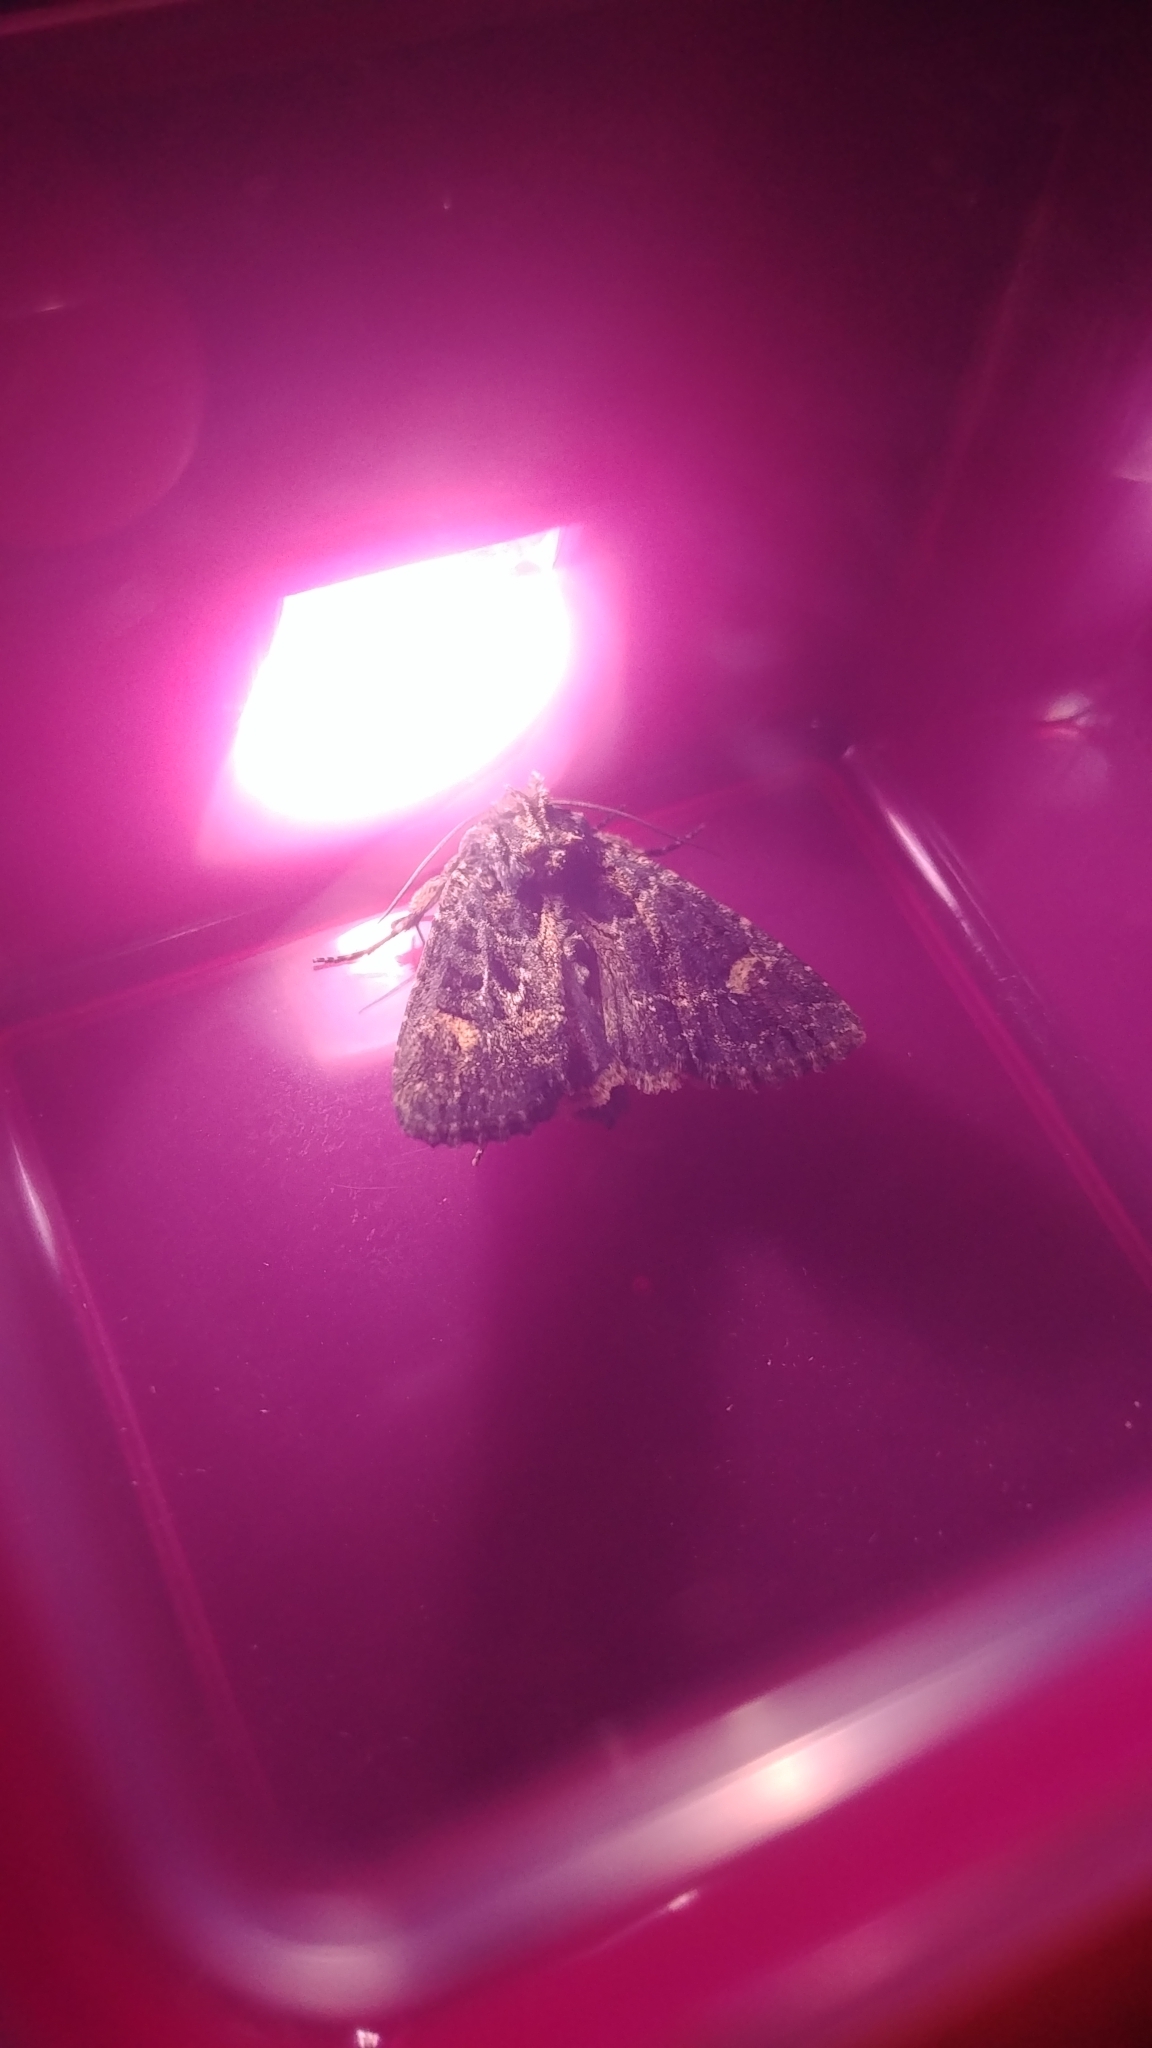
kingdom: Animalia
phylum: Arthropoda
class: Insecta
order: Lepidoptera
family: Noctuidae
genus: Aseptis
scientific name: Aseptis binotata
